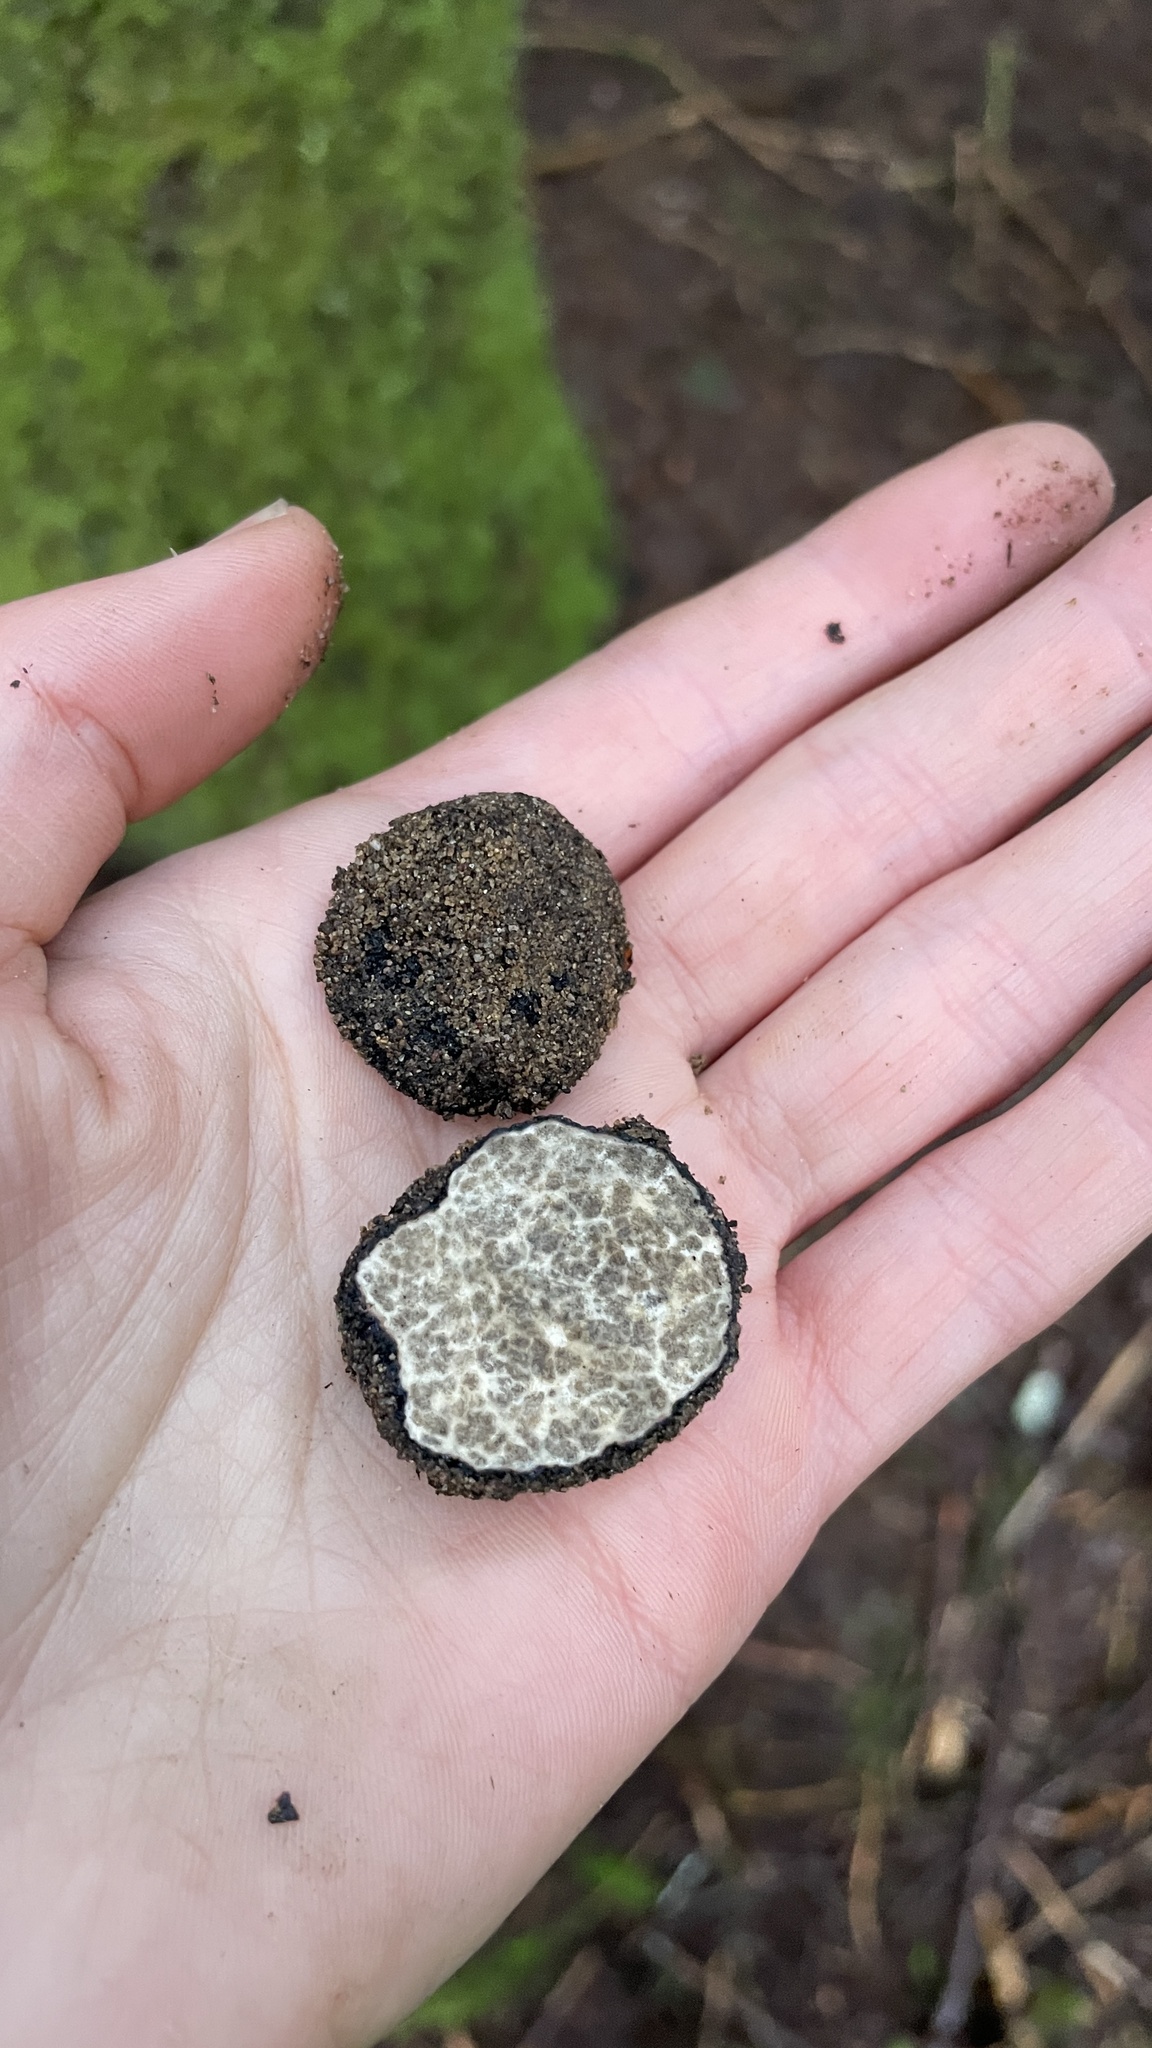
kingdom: Fungi
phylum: Ascomycota
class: Pezizomycetes
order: Pezizales
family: Morchellaceae
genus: Leucangium
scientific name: Leucangium carthusianum
